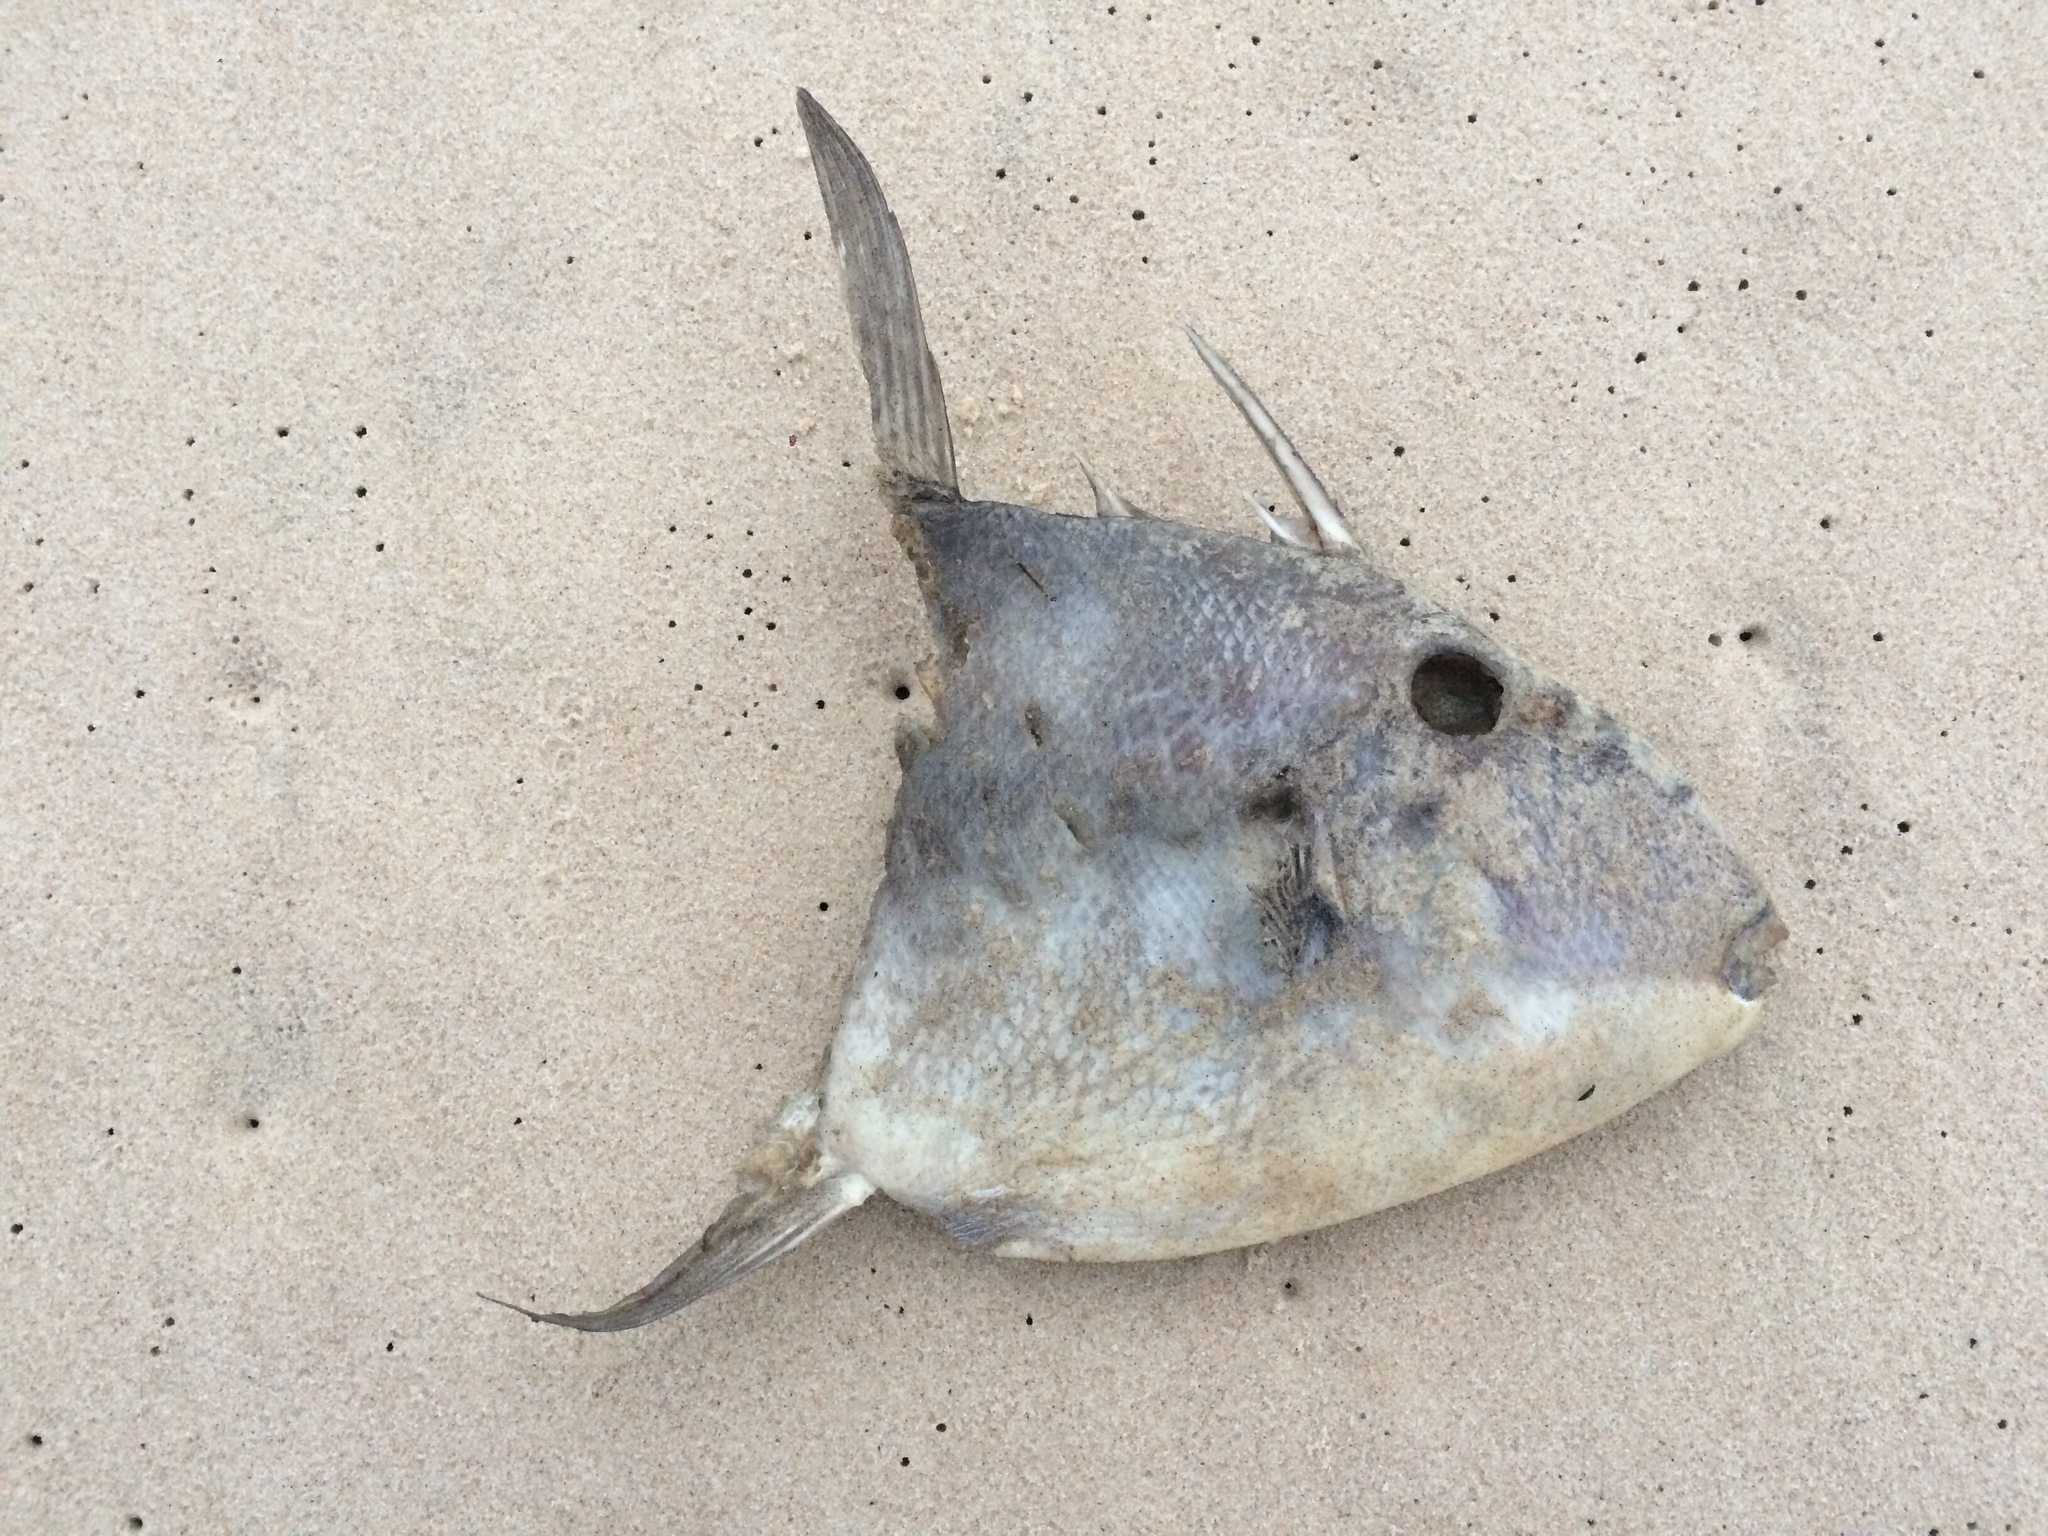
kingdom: Animalia
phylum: Chordata
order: Tetraodontiformes
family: Balistidae
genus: Balistes
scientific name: Balistes capriscus
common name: Grey triggerfish
